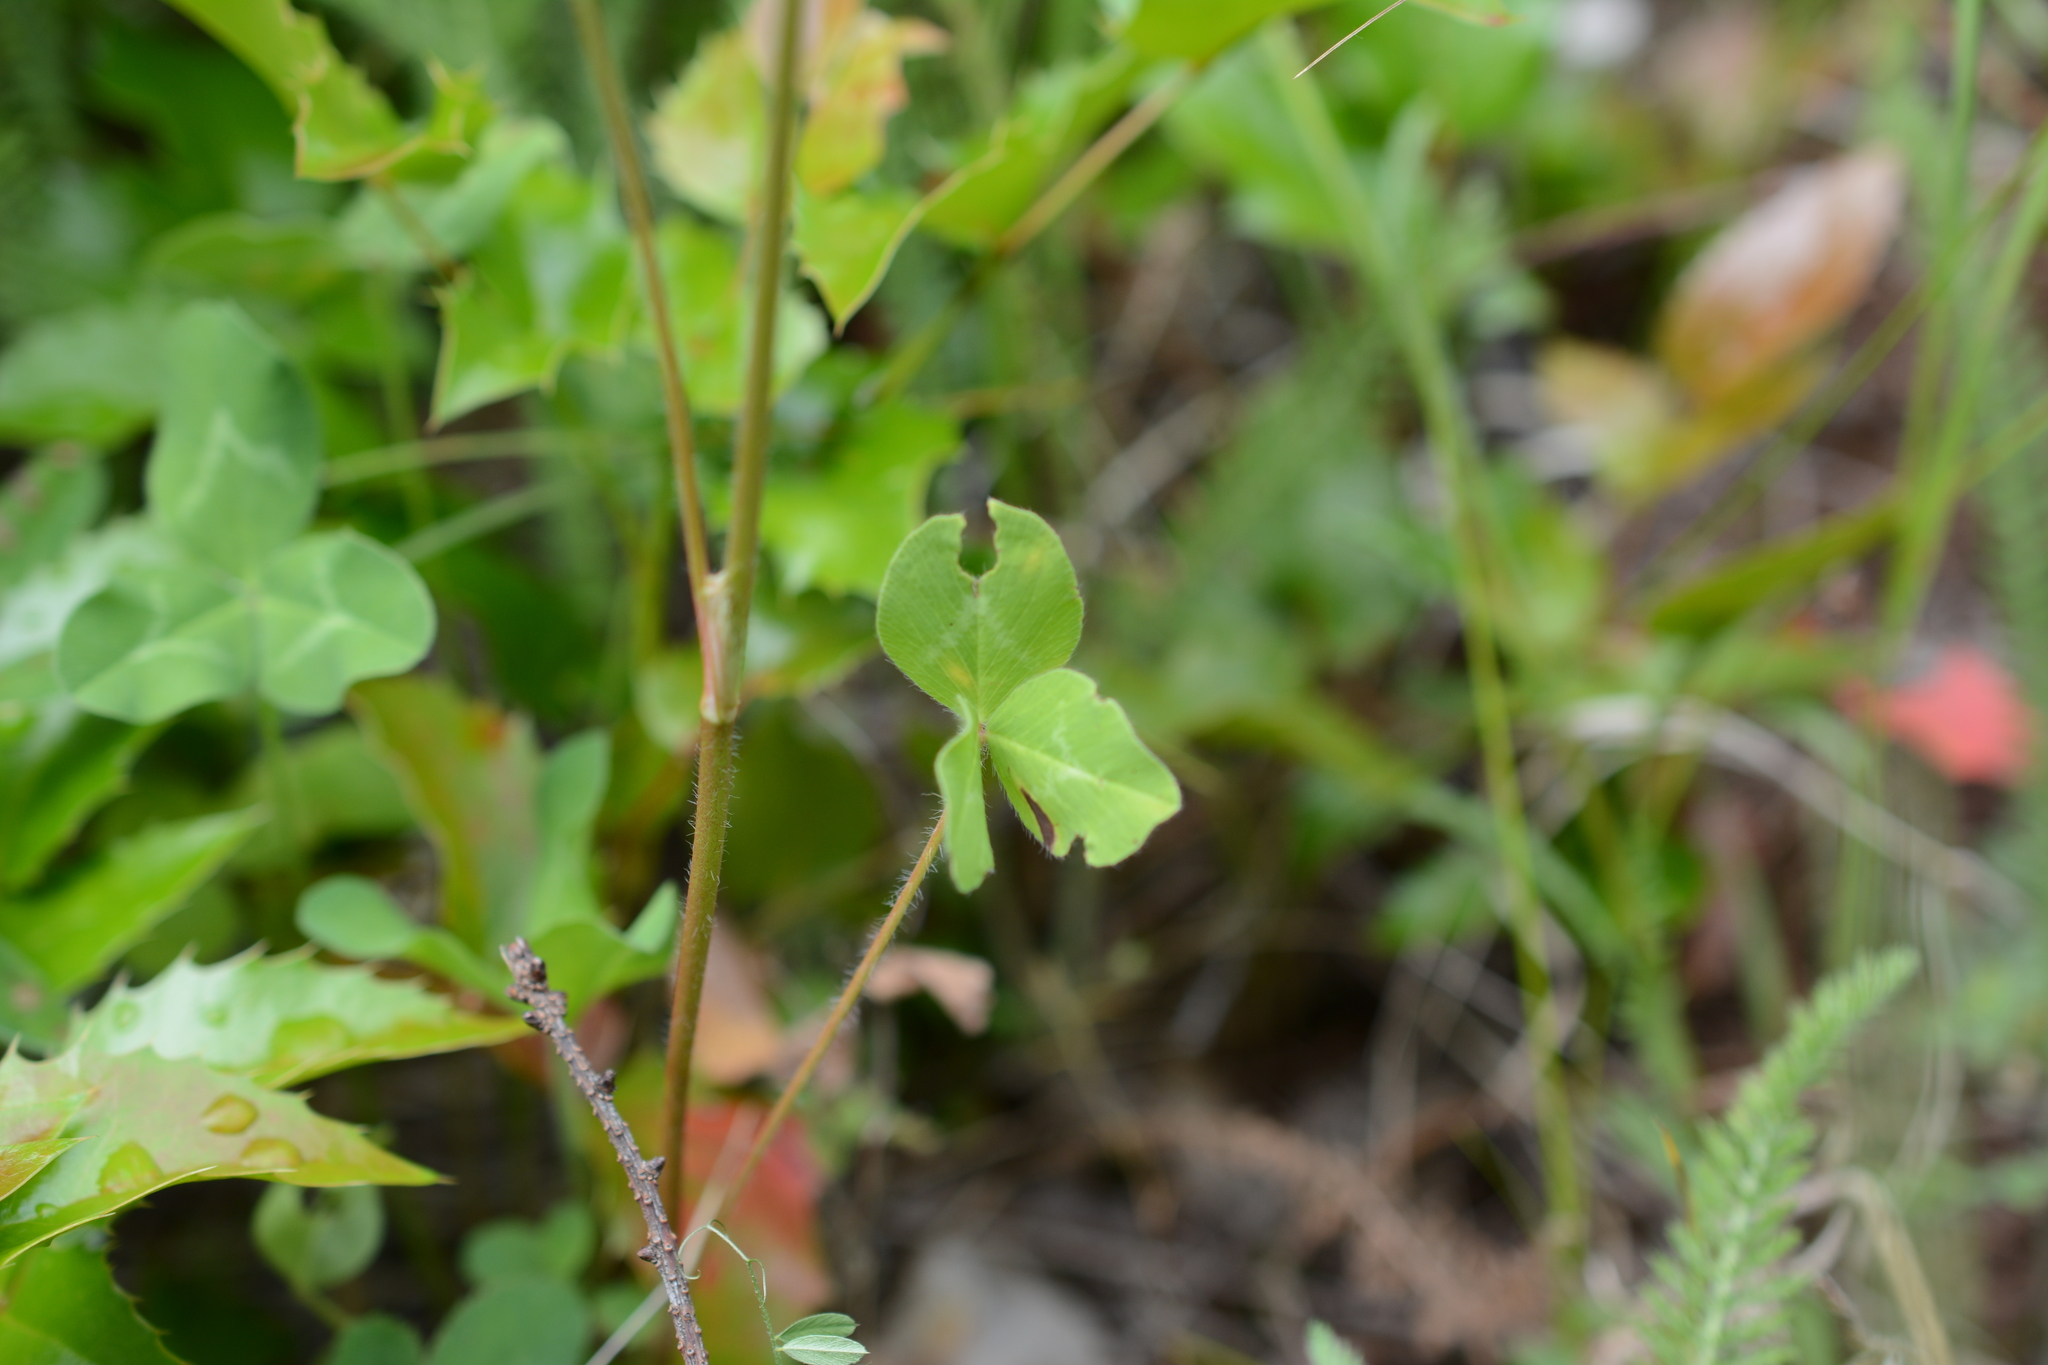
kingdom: Plantae
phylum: Tracheophyta
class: Magnoliopsida
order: Fabales
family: Fabaceae
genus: Trifolium
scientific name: Trifolium pratense
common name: Red clover
